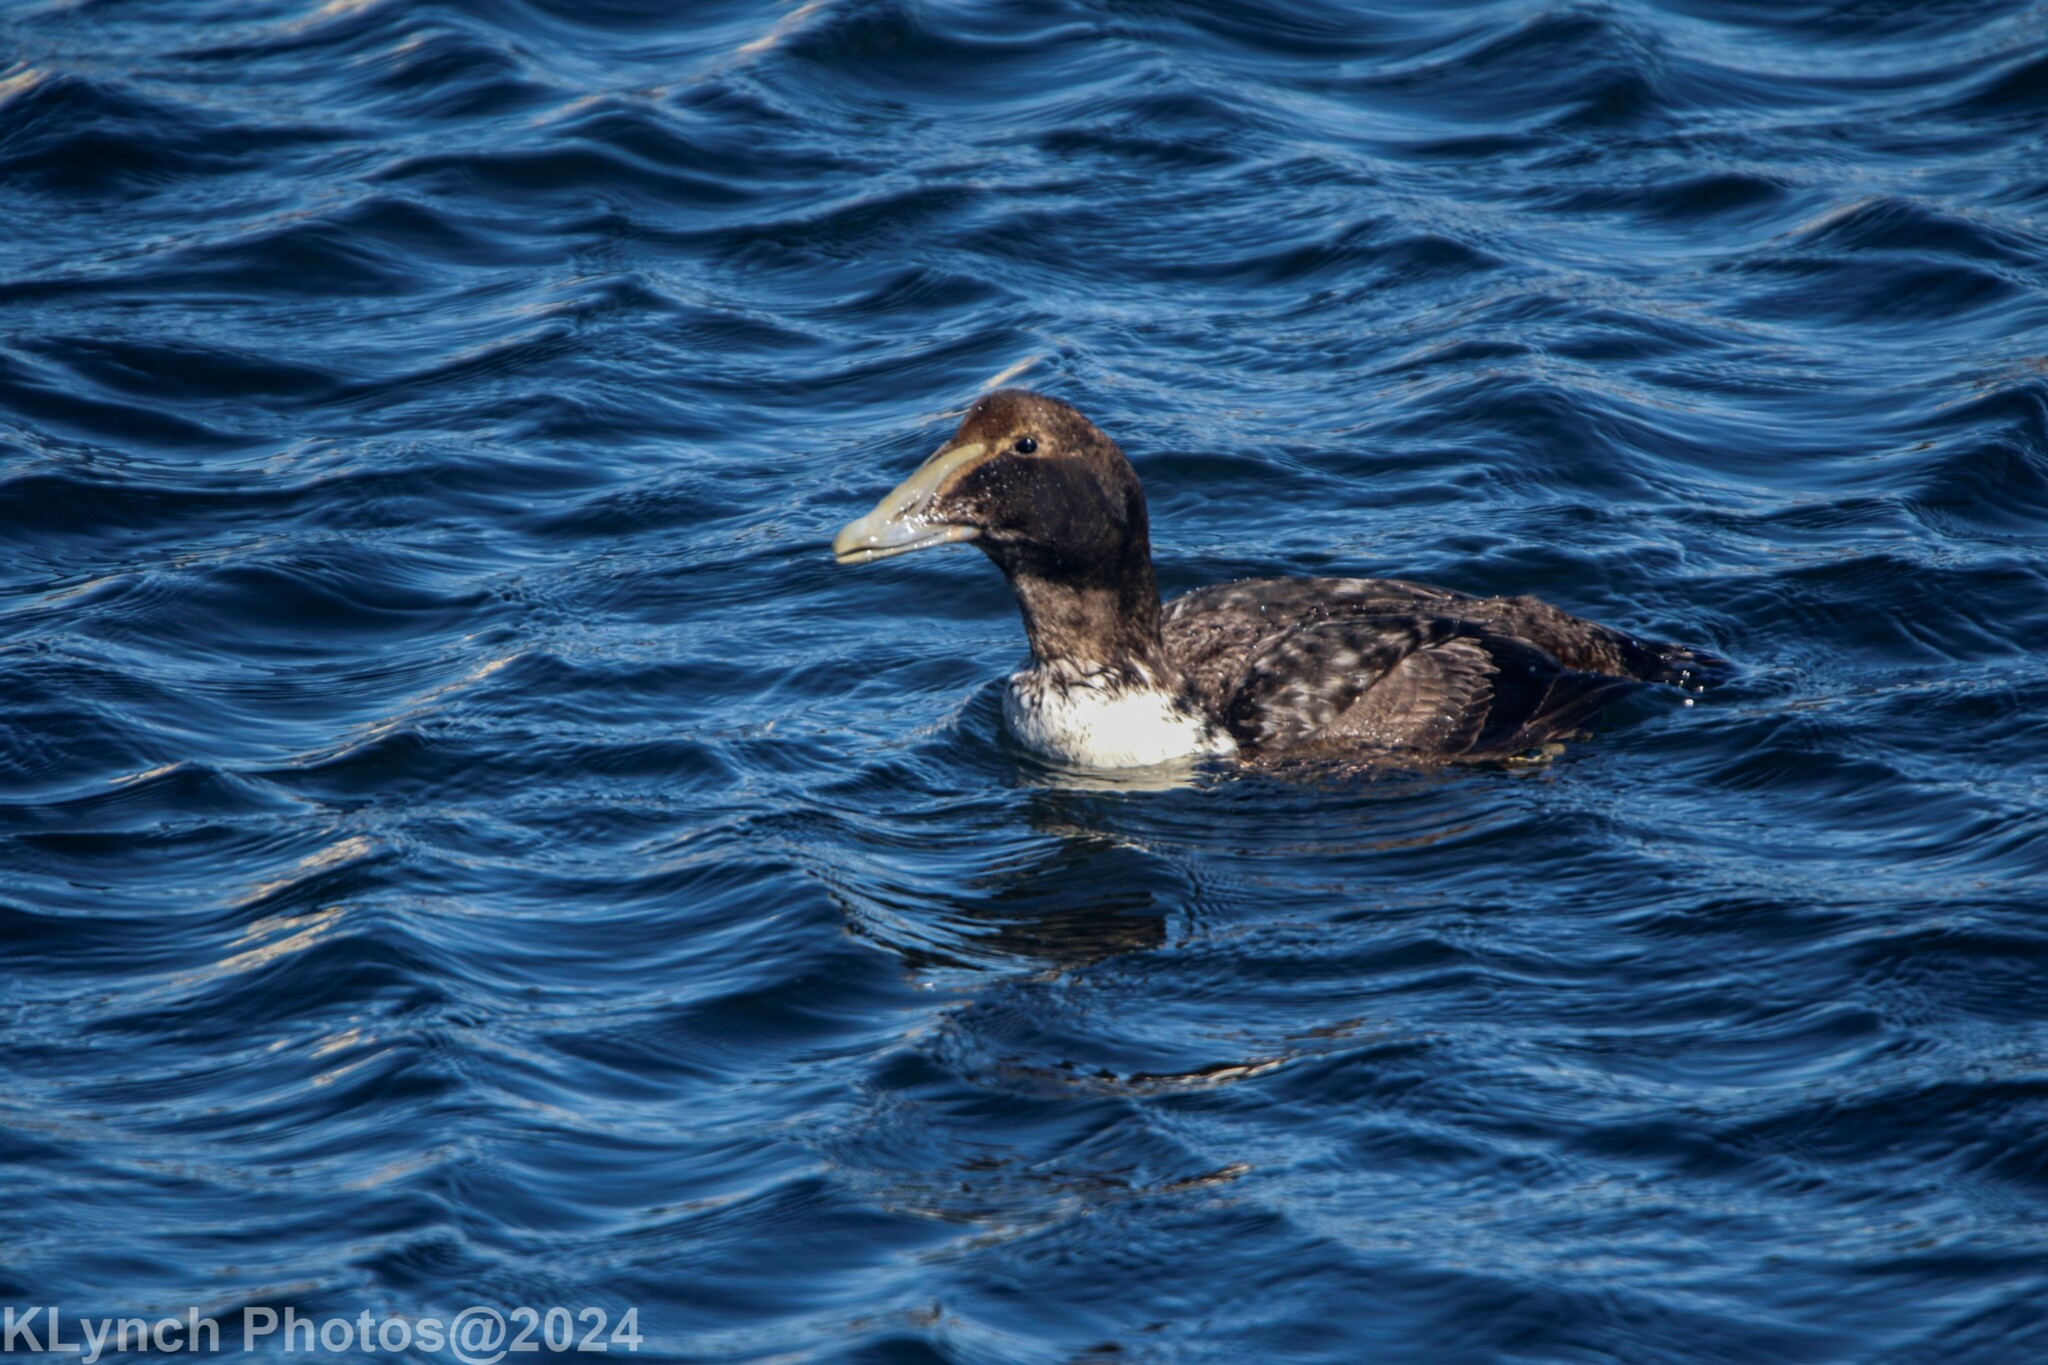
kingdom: Animalia
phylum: Chordata
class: Aves
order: Anseriformes
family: Anatidae
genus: Somateria
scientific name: Somateria mollissima
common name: Common eider
